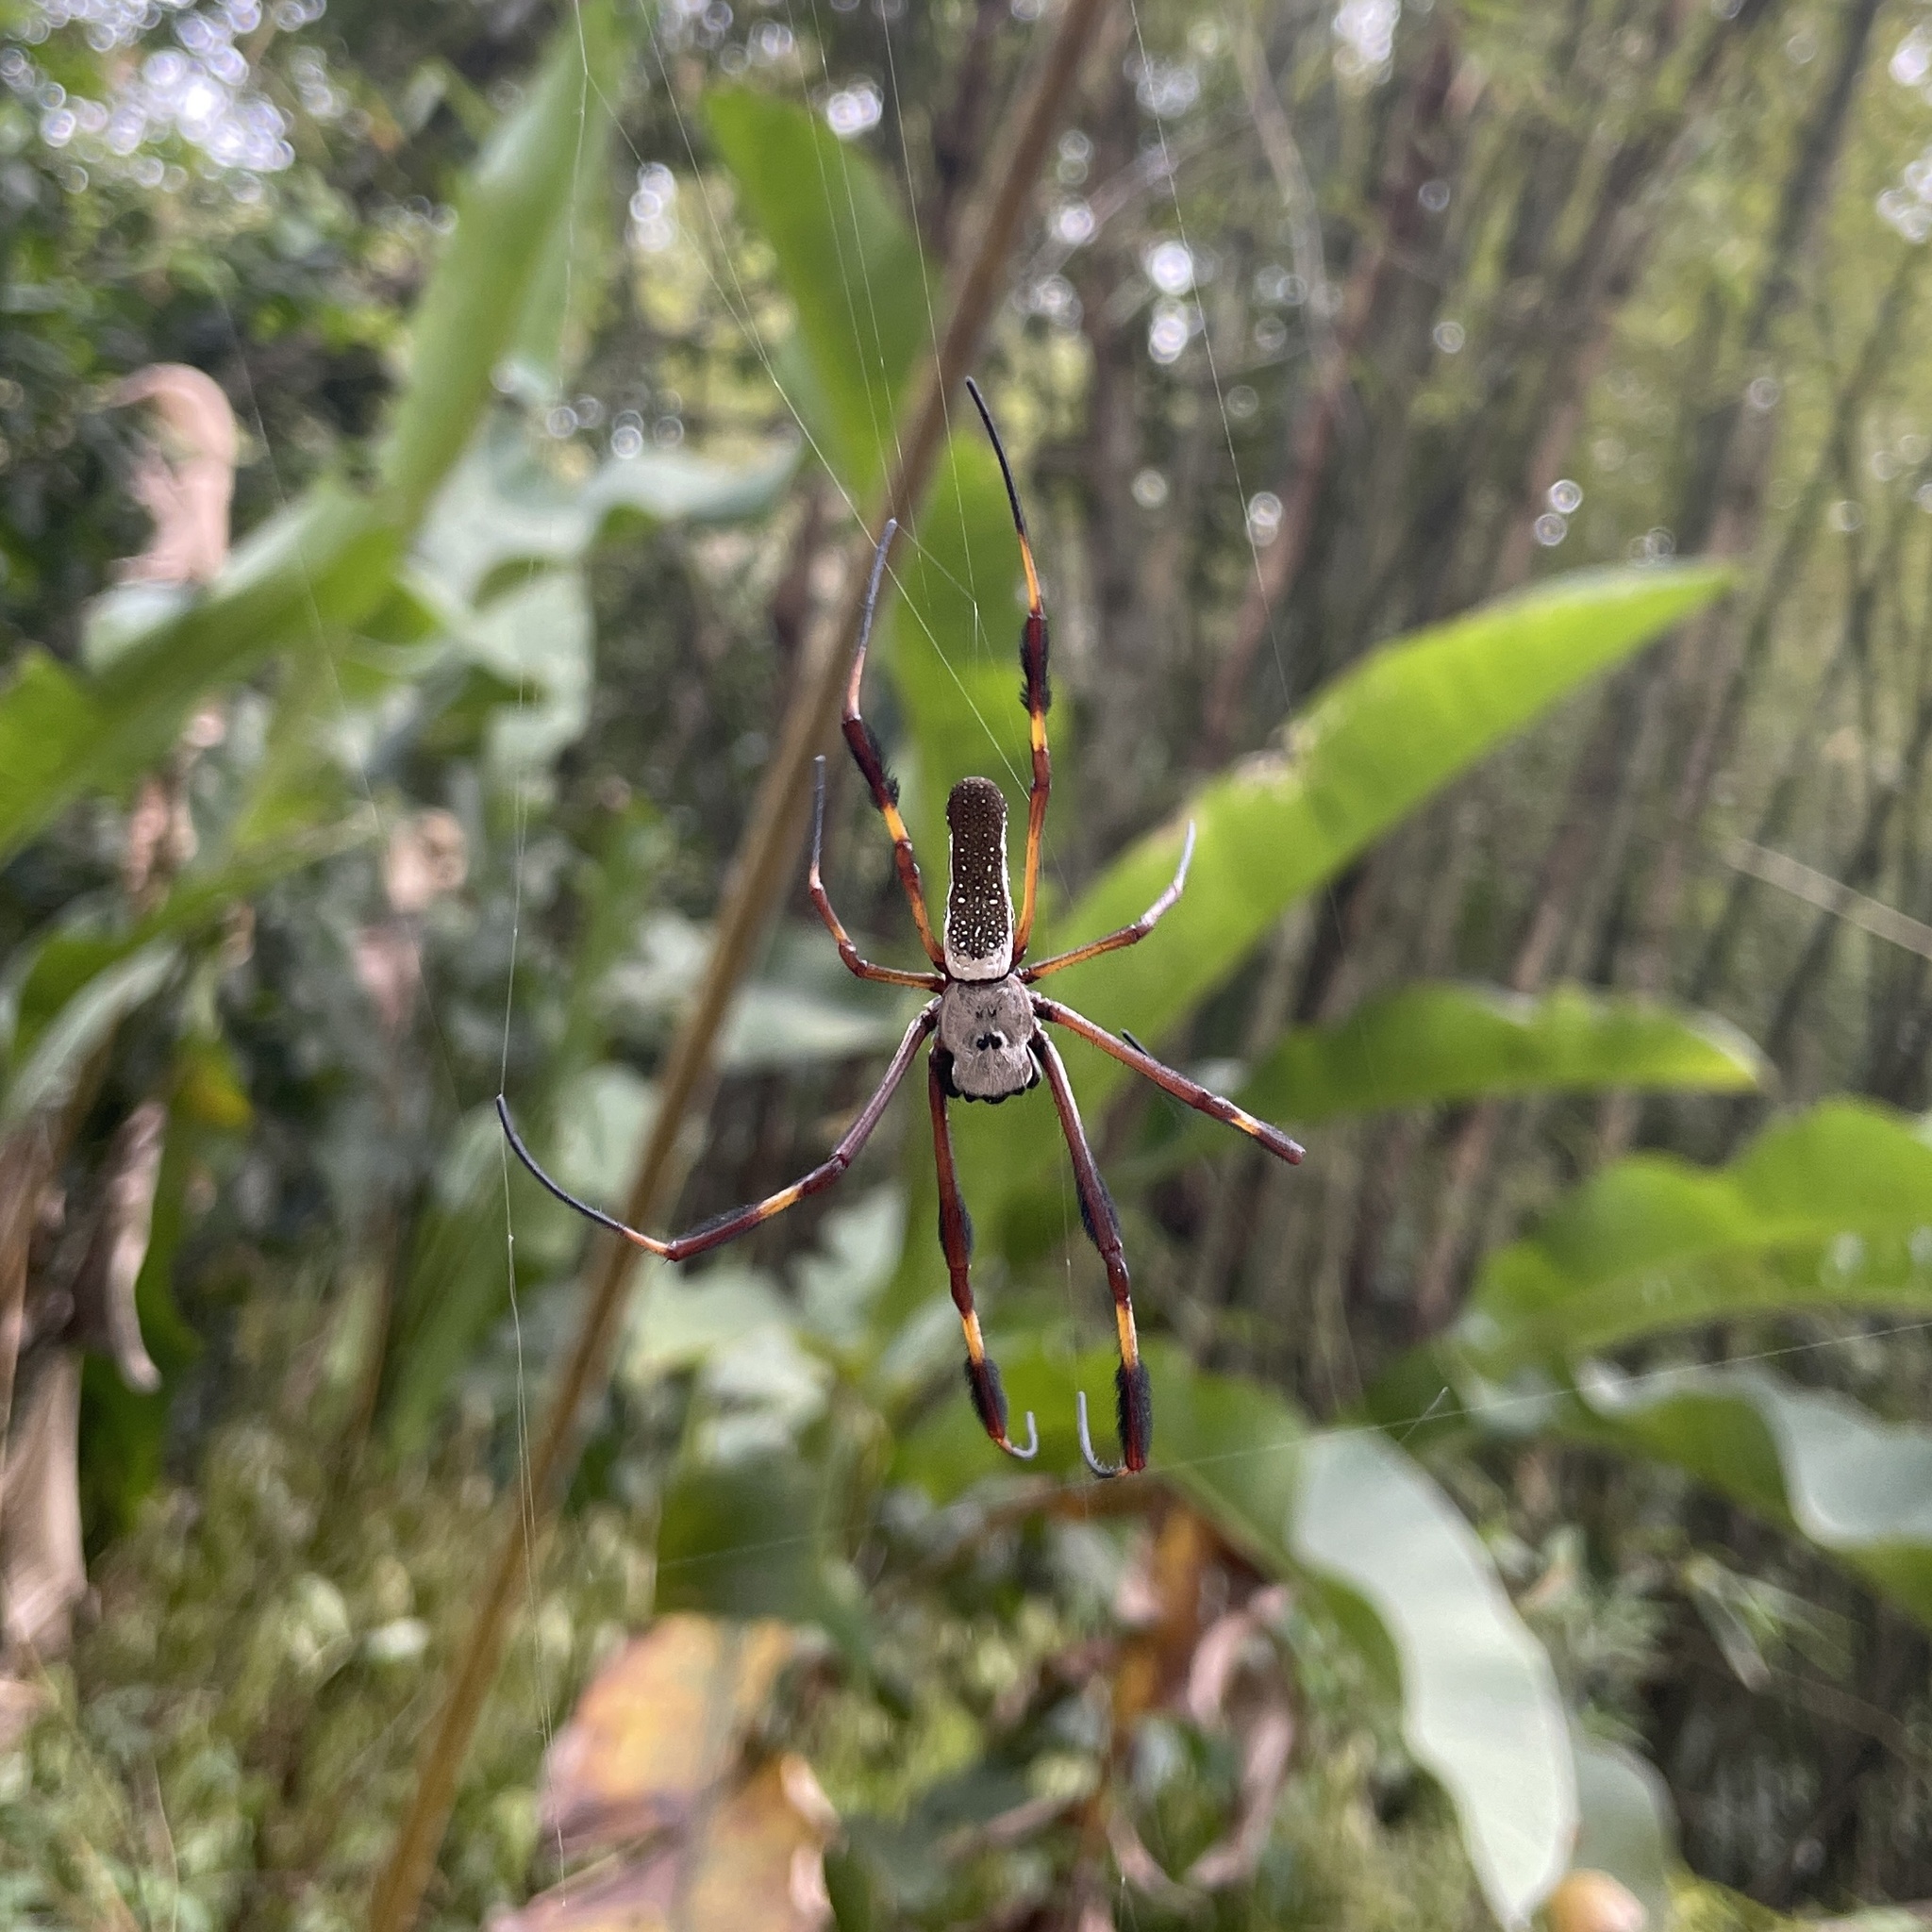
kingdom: Animalia
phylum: Arthropoda
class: Arachnida
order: Araneae
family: Araneidae
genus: Trichonephila
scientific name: Trichonephila clavipes
